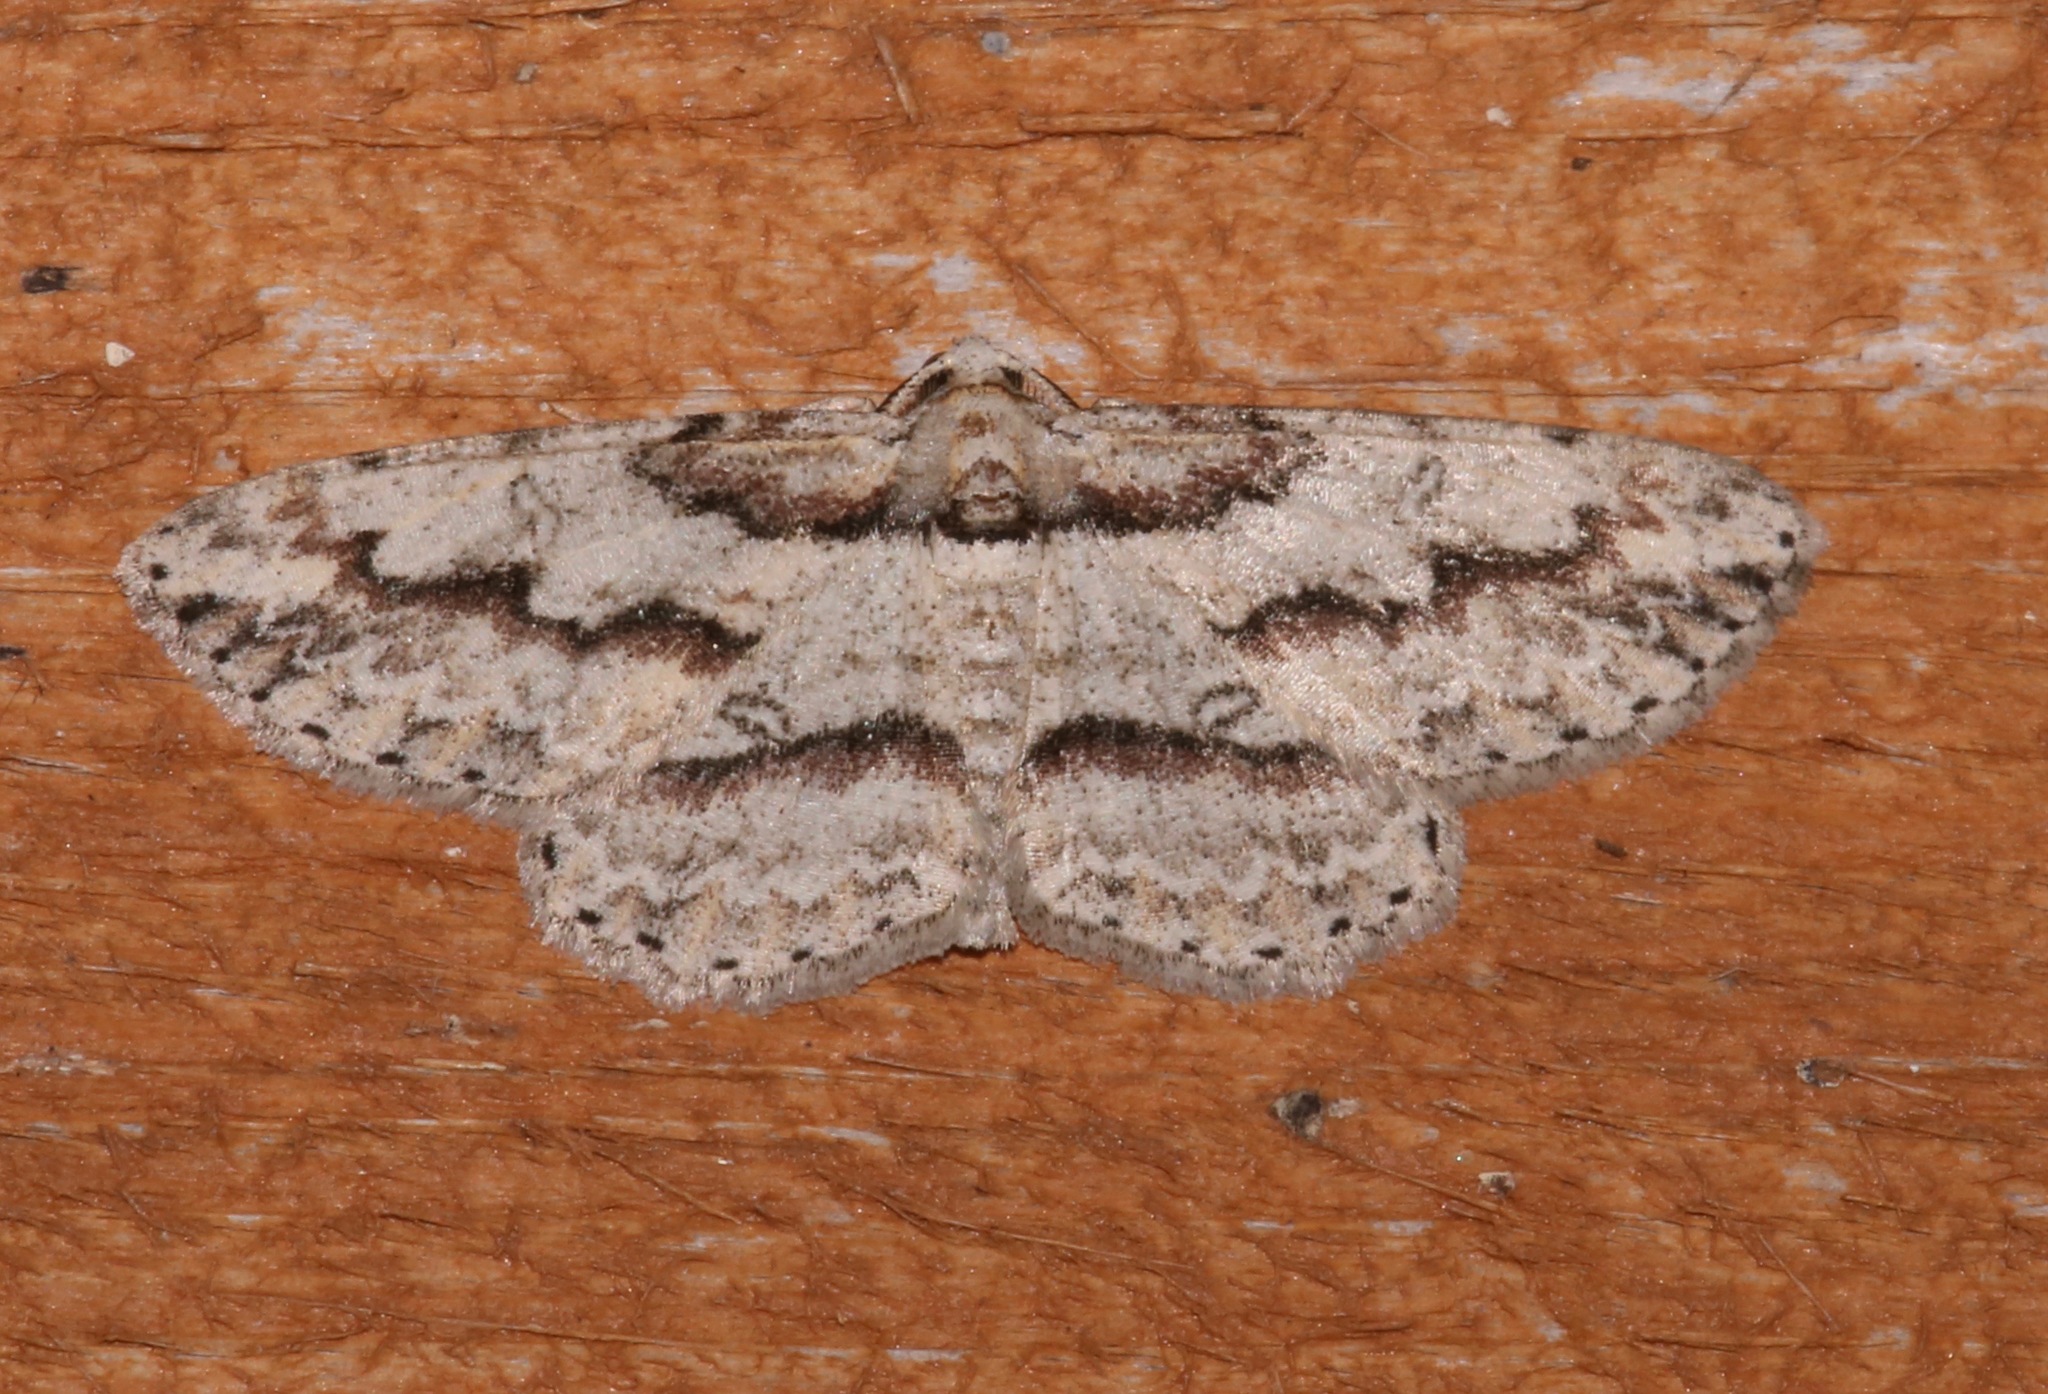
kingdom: Animalia
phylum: Arthropoda
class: Insecta
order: Lepidoptera
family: Geometridae
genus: Iridopsis
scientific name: Iridopsis pergracilis
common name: Cypress looper
